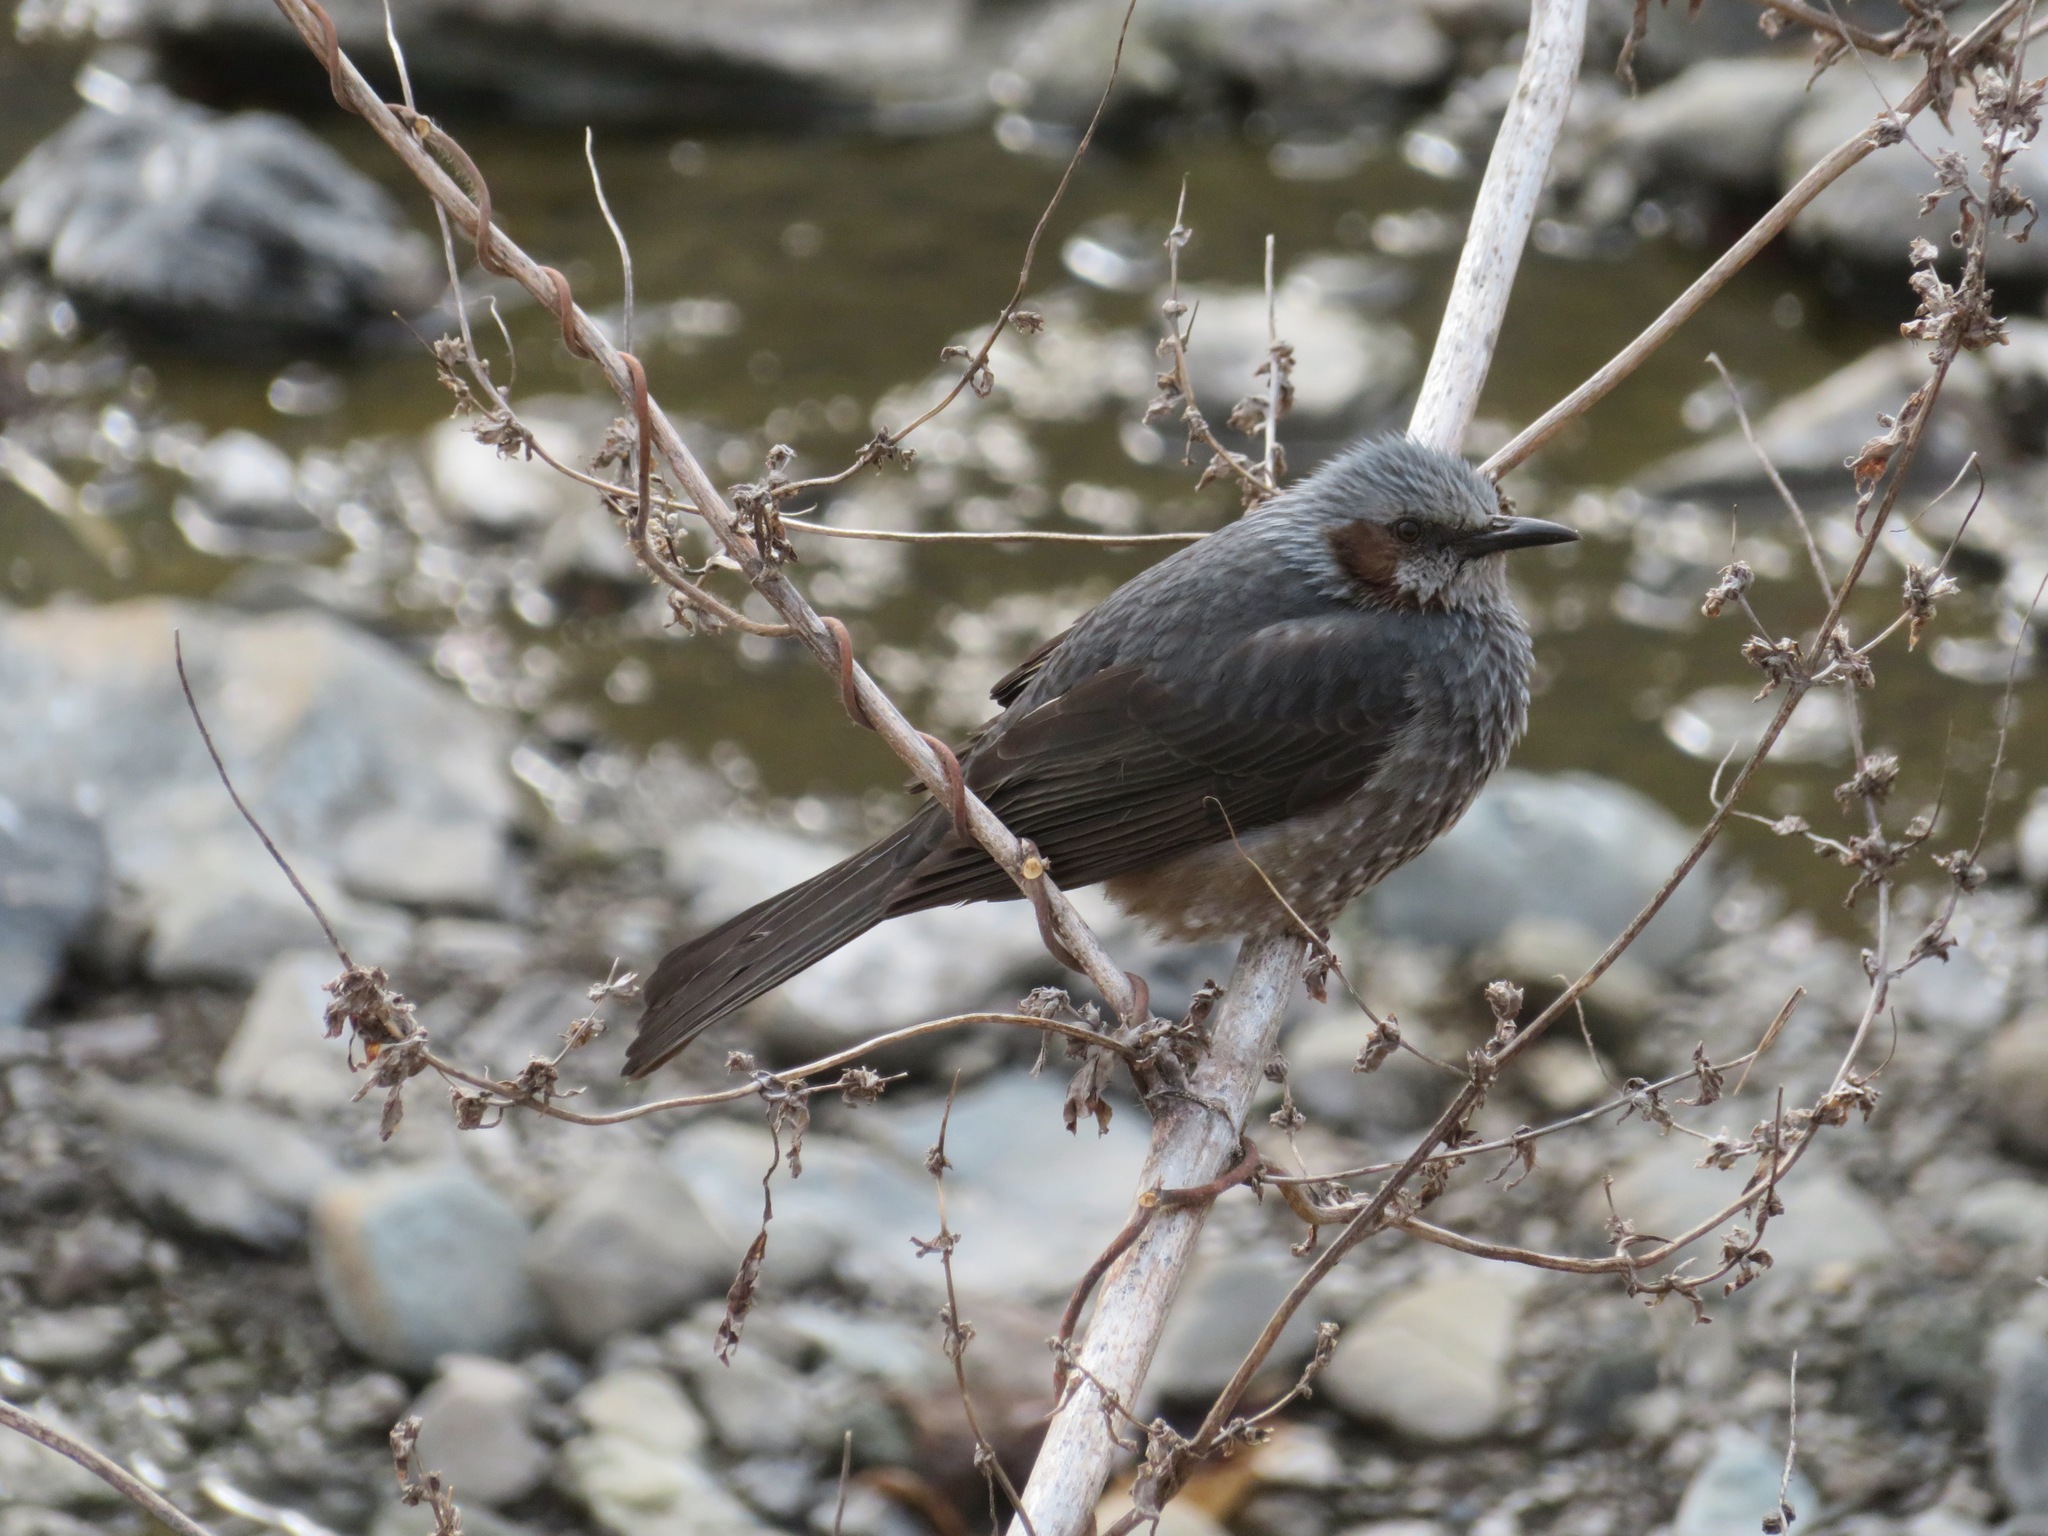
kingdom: Animalia
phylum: Chordata
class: Aves
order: Passeriformes
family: Pycnonotidae
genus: Hypsipetes
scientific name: Hypsipetes amaurotis
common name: Brown-eared bulbul
